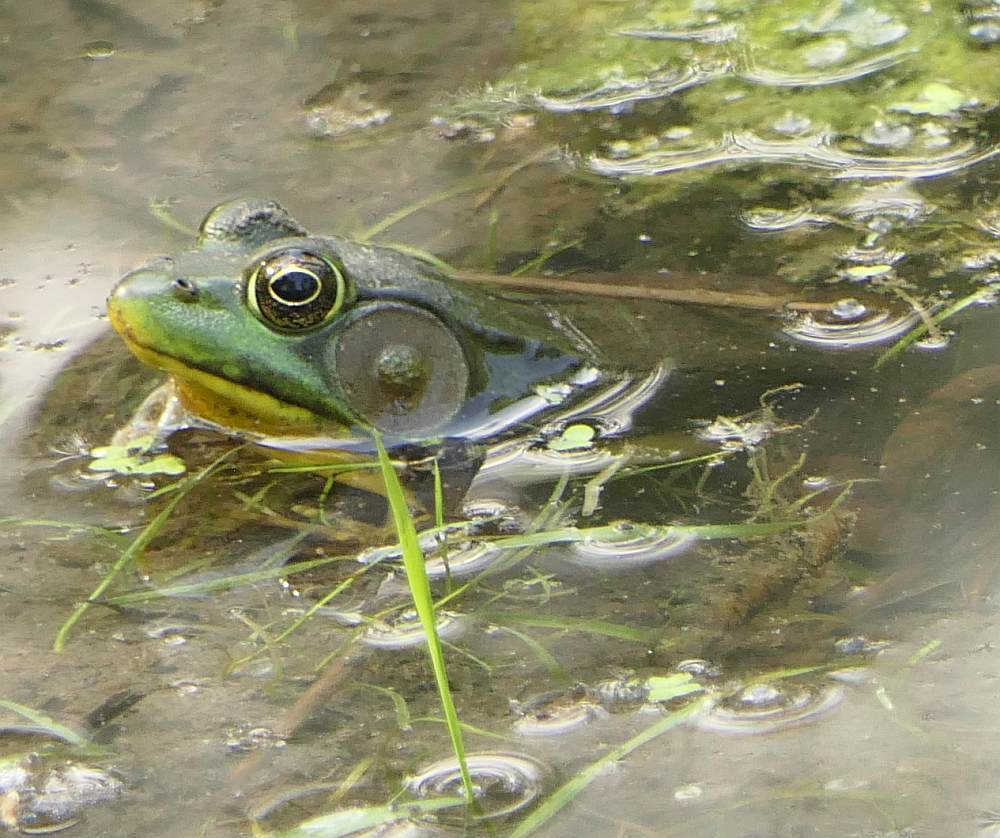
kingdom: Animalia
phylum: Chordata
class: Amphibia
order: Anura
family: Ranidae
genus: Lithobates
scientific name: Lithobates clamitans
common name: Green frog
